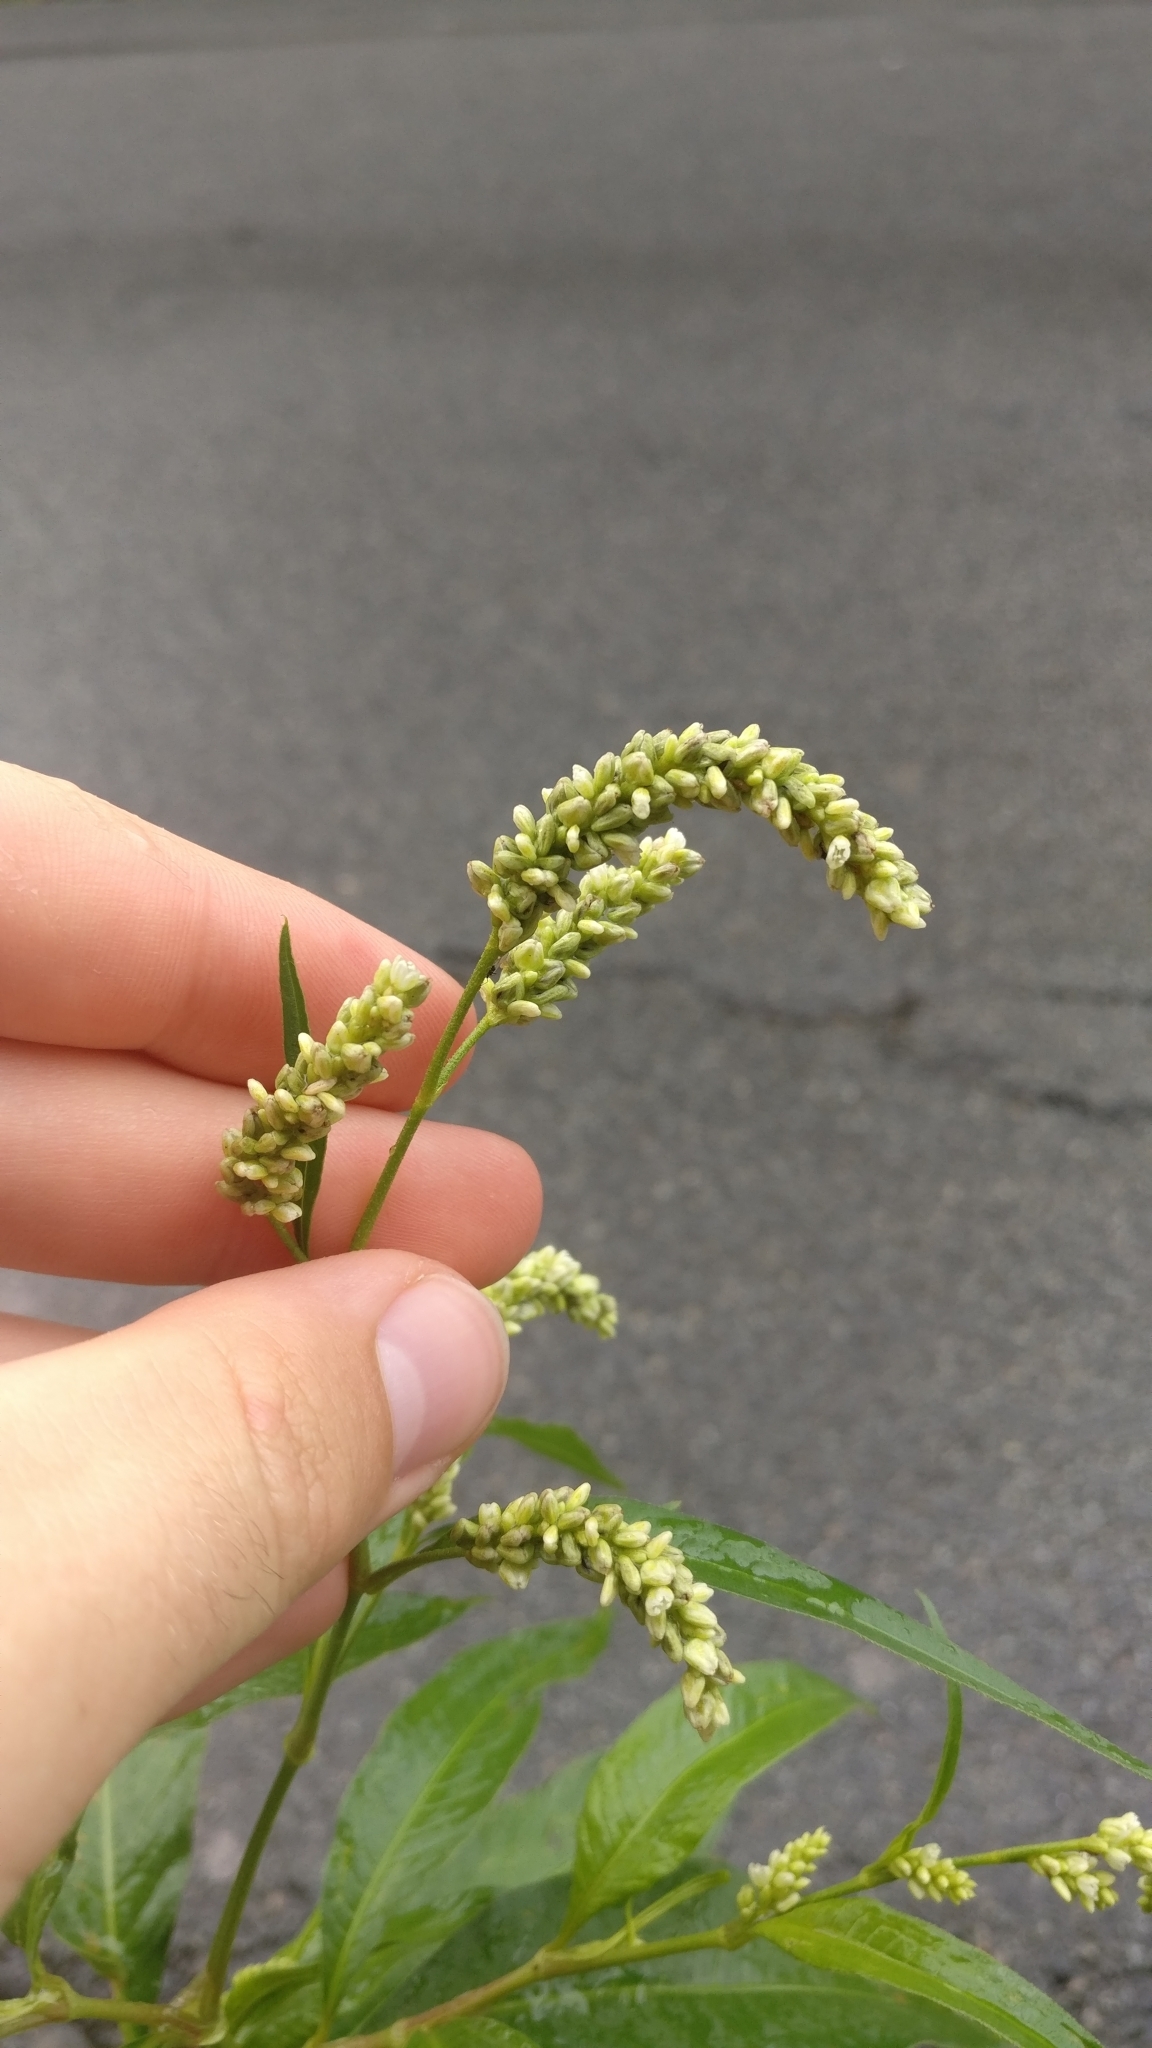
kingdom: Plantae
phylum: Tracheophyta
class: Magnoliopsida
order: Caryophyllales
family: Polygonaceae
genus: Persicaria
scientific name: Persicaria lapathifolia
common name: Curlytop knotweed
